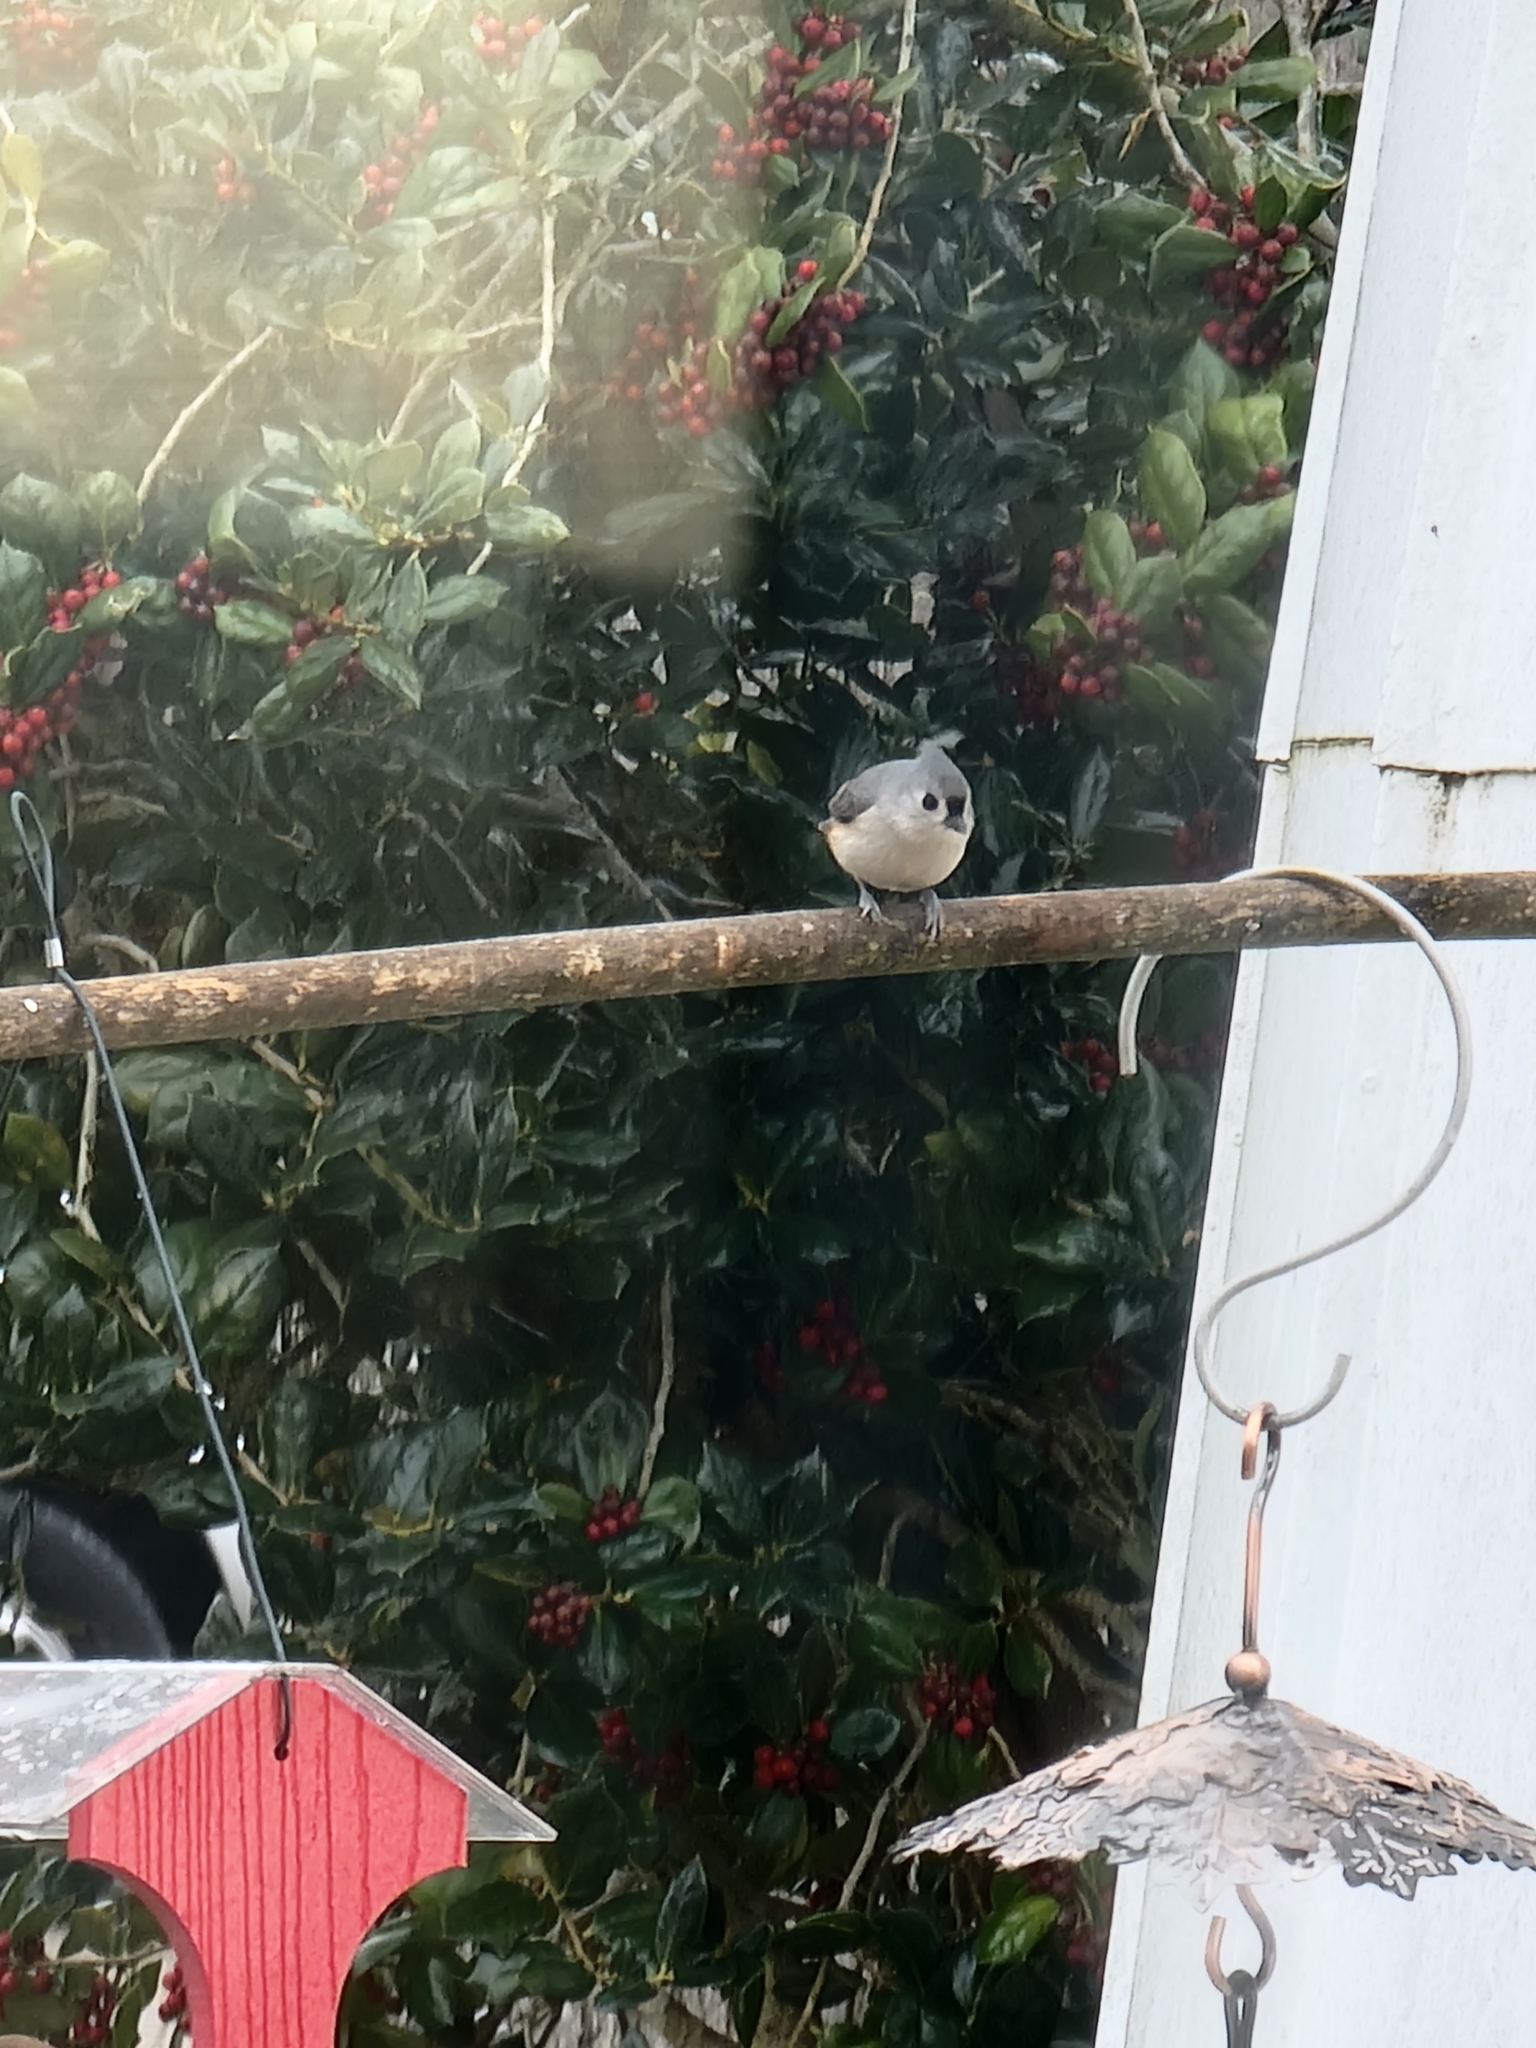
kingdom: Animalia
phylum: Chordata
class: Aves
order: Passeriformes
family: Paridae
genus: Baeolophus
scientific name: Baeolophus bicolor
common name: Tufted titmouse
